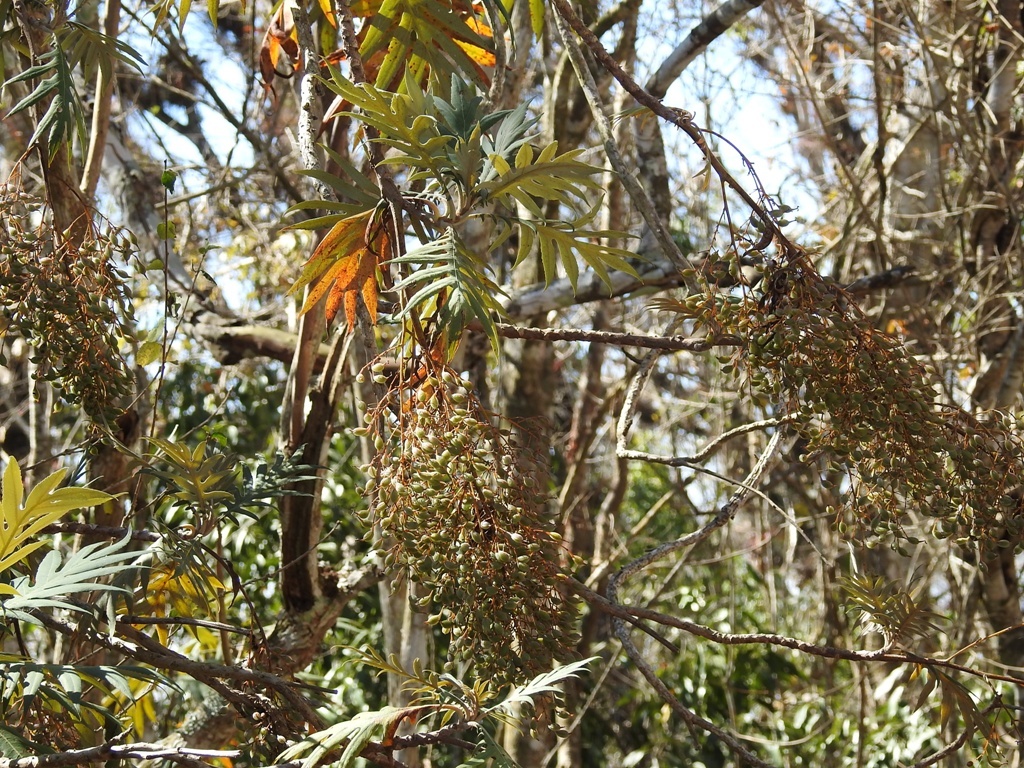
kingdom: Plantae
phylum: Tracheophyta
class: Magnoliopsida
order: Ranunculales
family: Papaveraceae
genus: Bocconia
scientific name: Bocconia arborea
